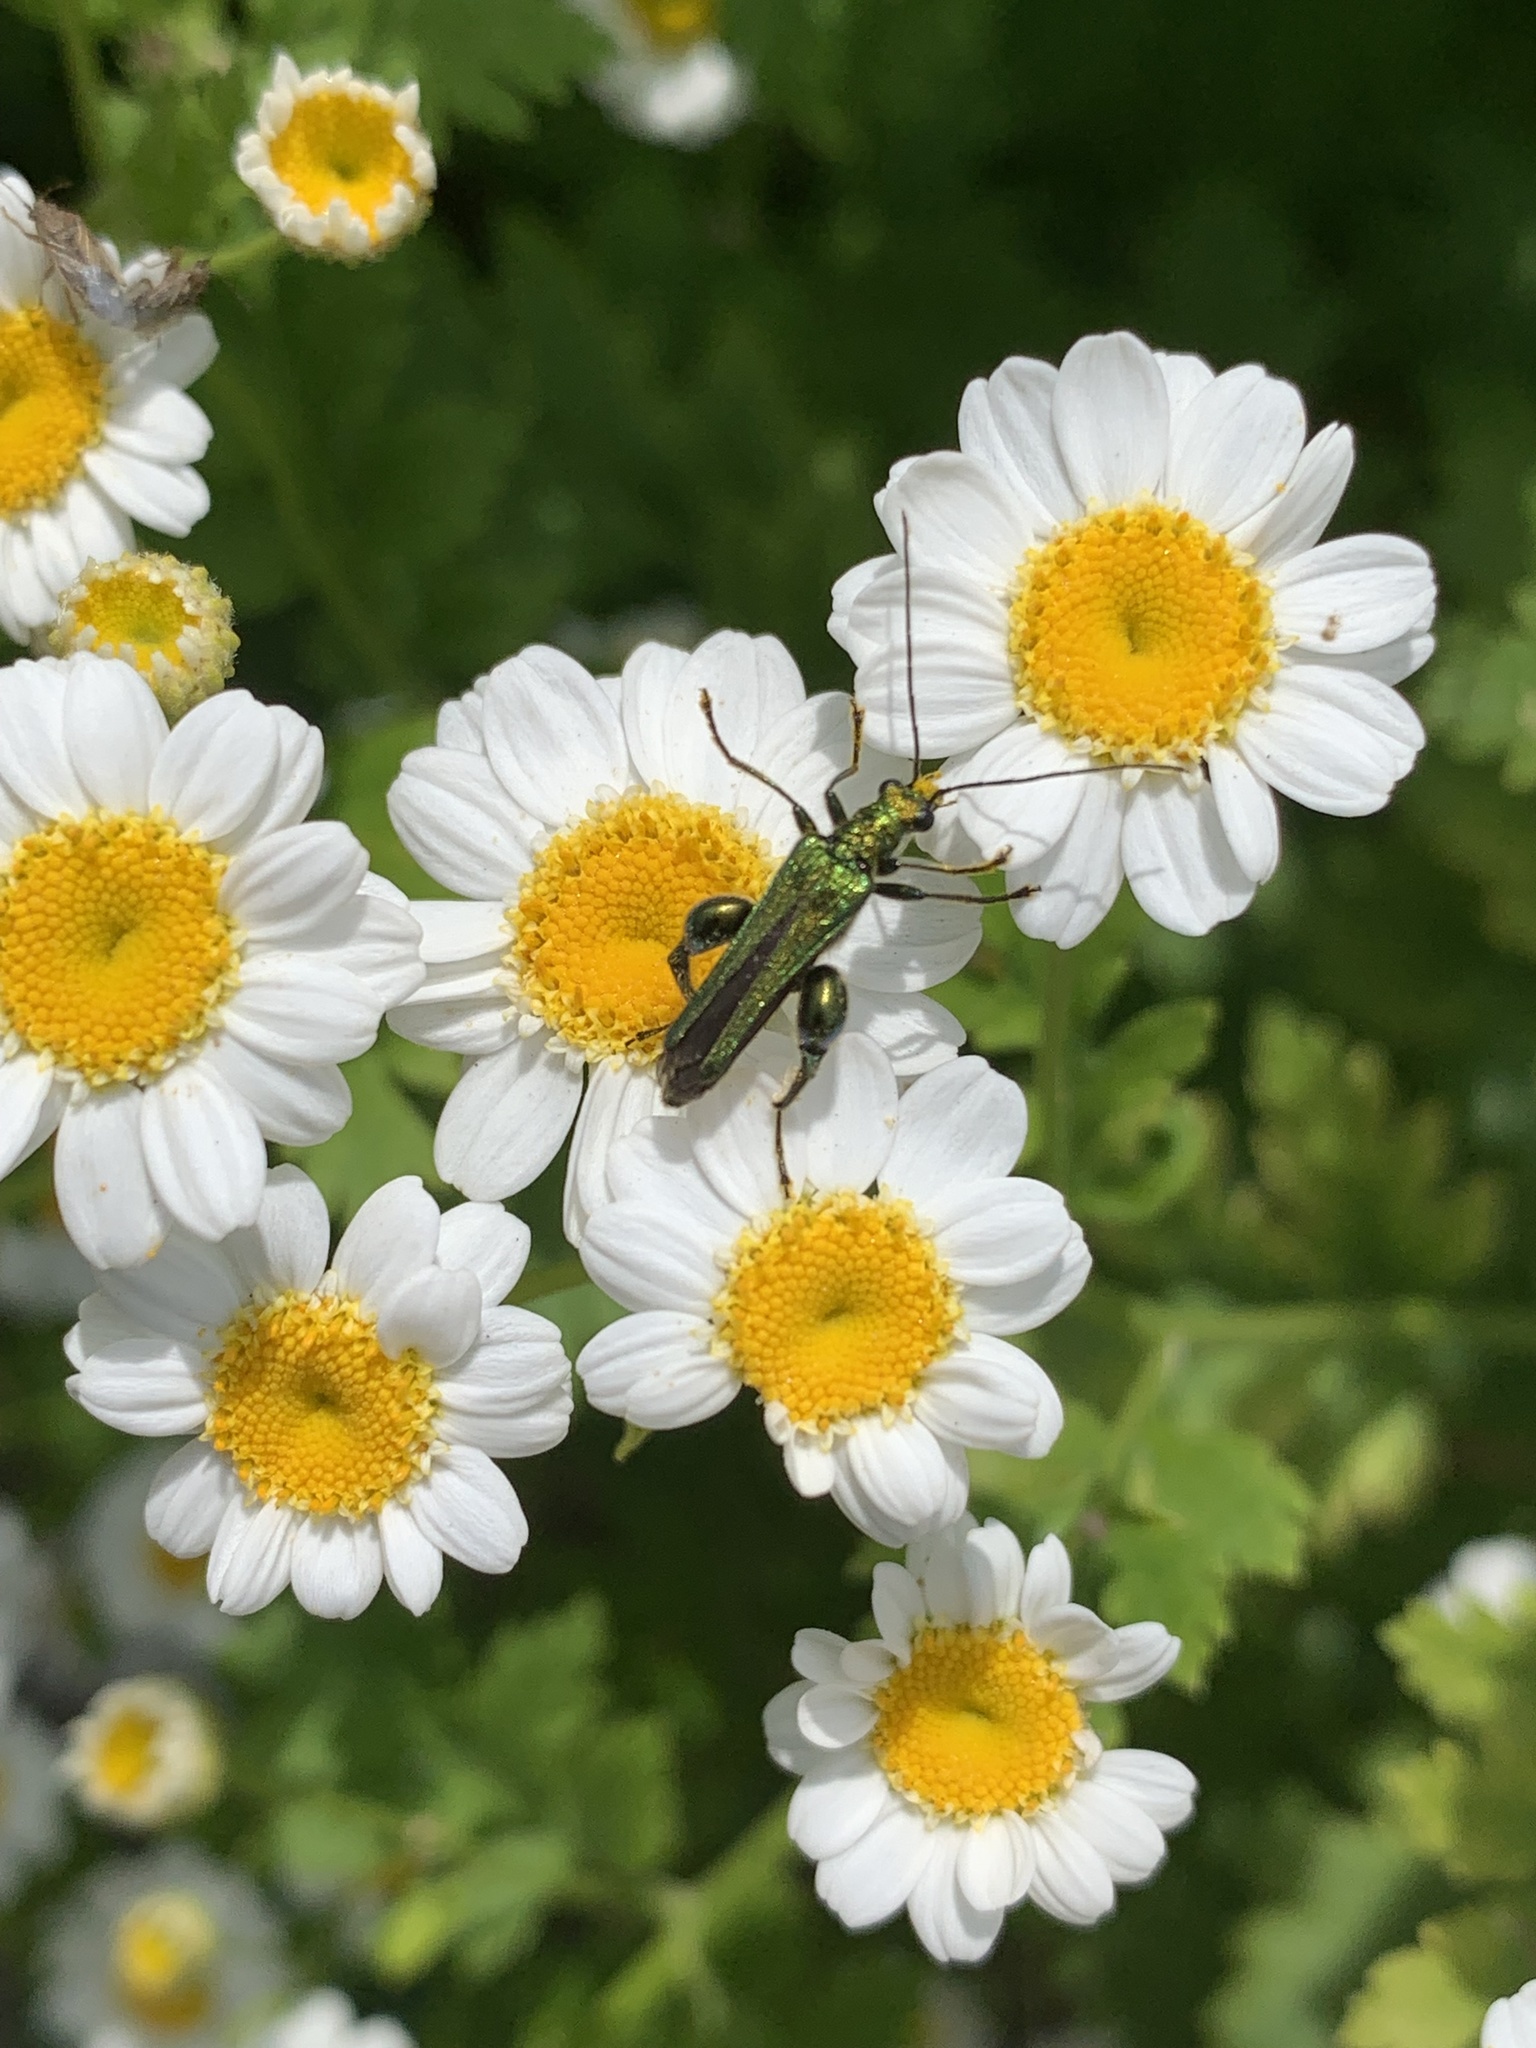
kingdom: Animalia
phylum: Arthropoda
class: Insecta
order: Coleoptera
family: Oedemeridae
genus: Oedemera
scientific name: Oedemera nobilis
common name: Swollen-thighed beetle
